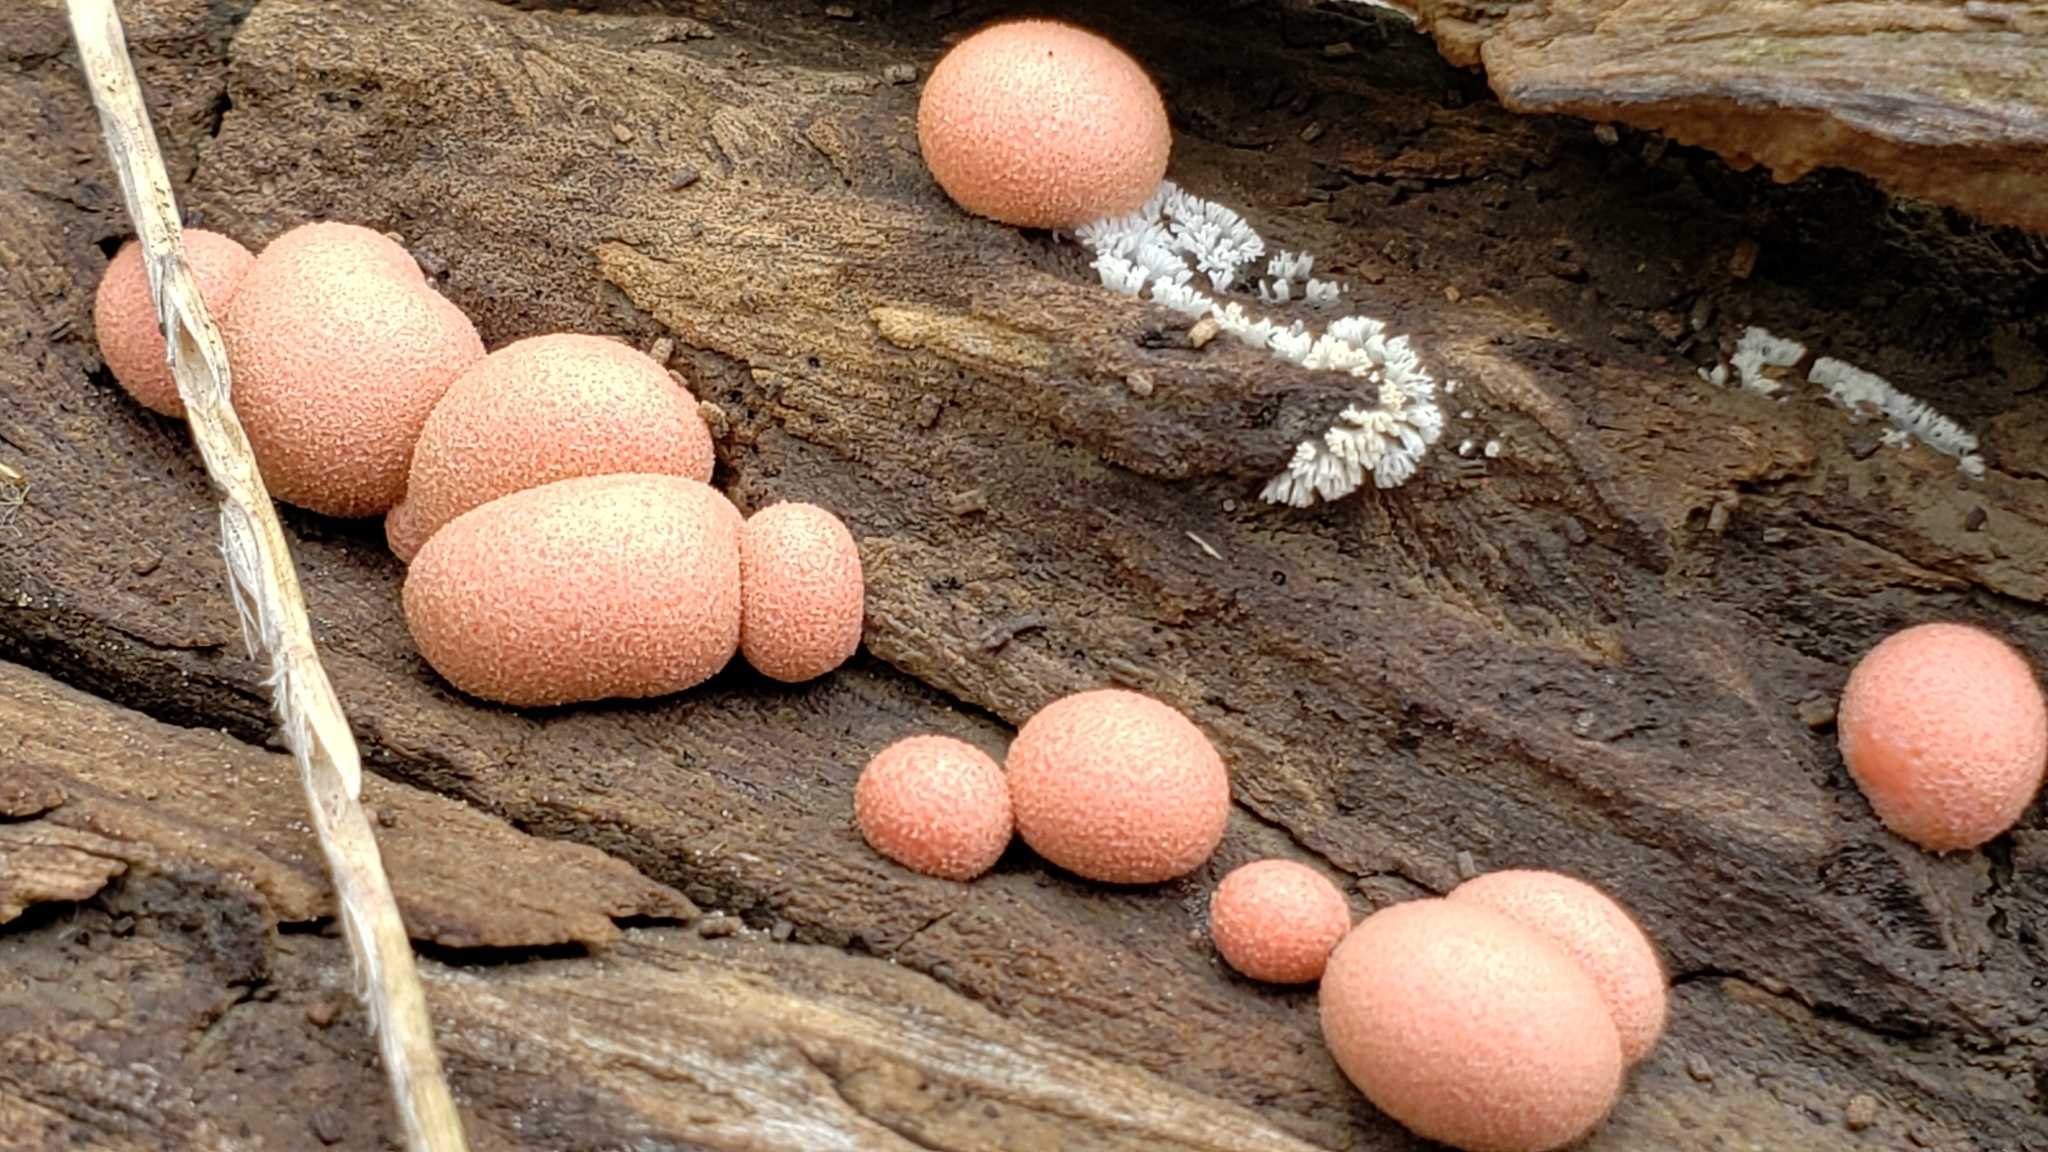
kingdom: Protozoa
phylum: Mycetozoa
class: Myxomycetes
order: Cribrariales
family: Tubiferaceae
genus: Lycogala
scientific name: Lycogala epidendrum
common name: Wolf's milk
